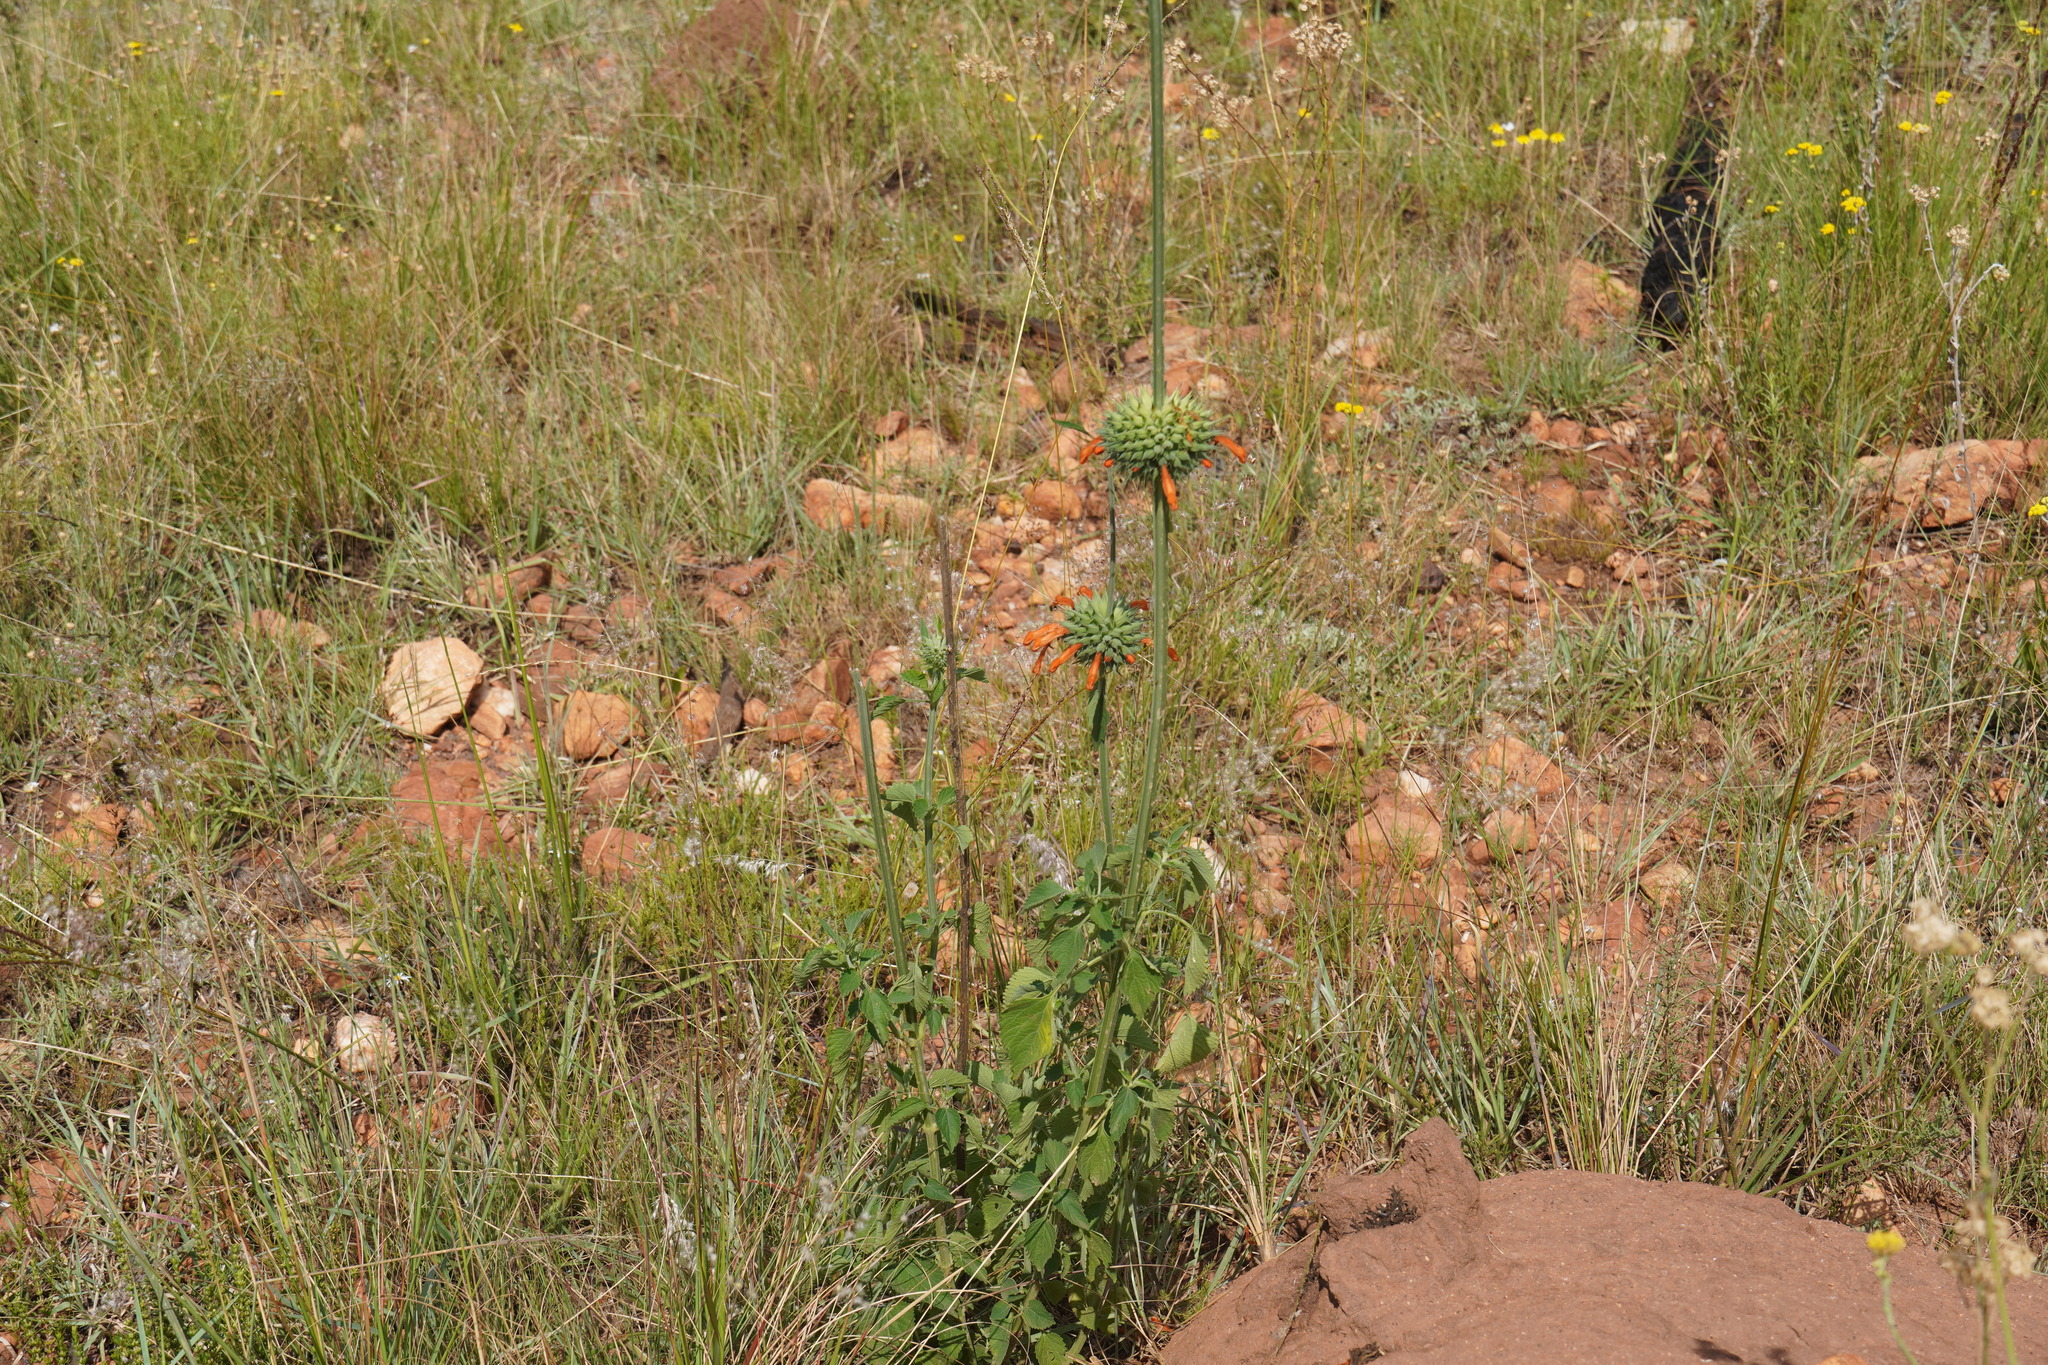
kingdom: Plantae
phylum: Tracheophyta
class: Magnoliopsida
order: Lamiales
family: Lamiaceae
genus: Leonotis
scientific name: Leonotis nepetifolia
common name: Christmas candlestick
